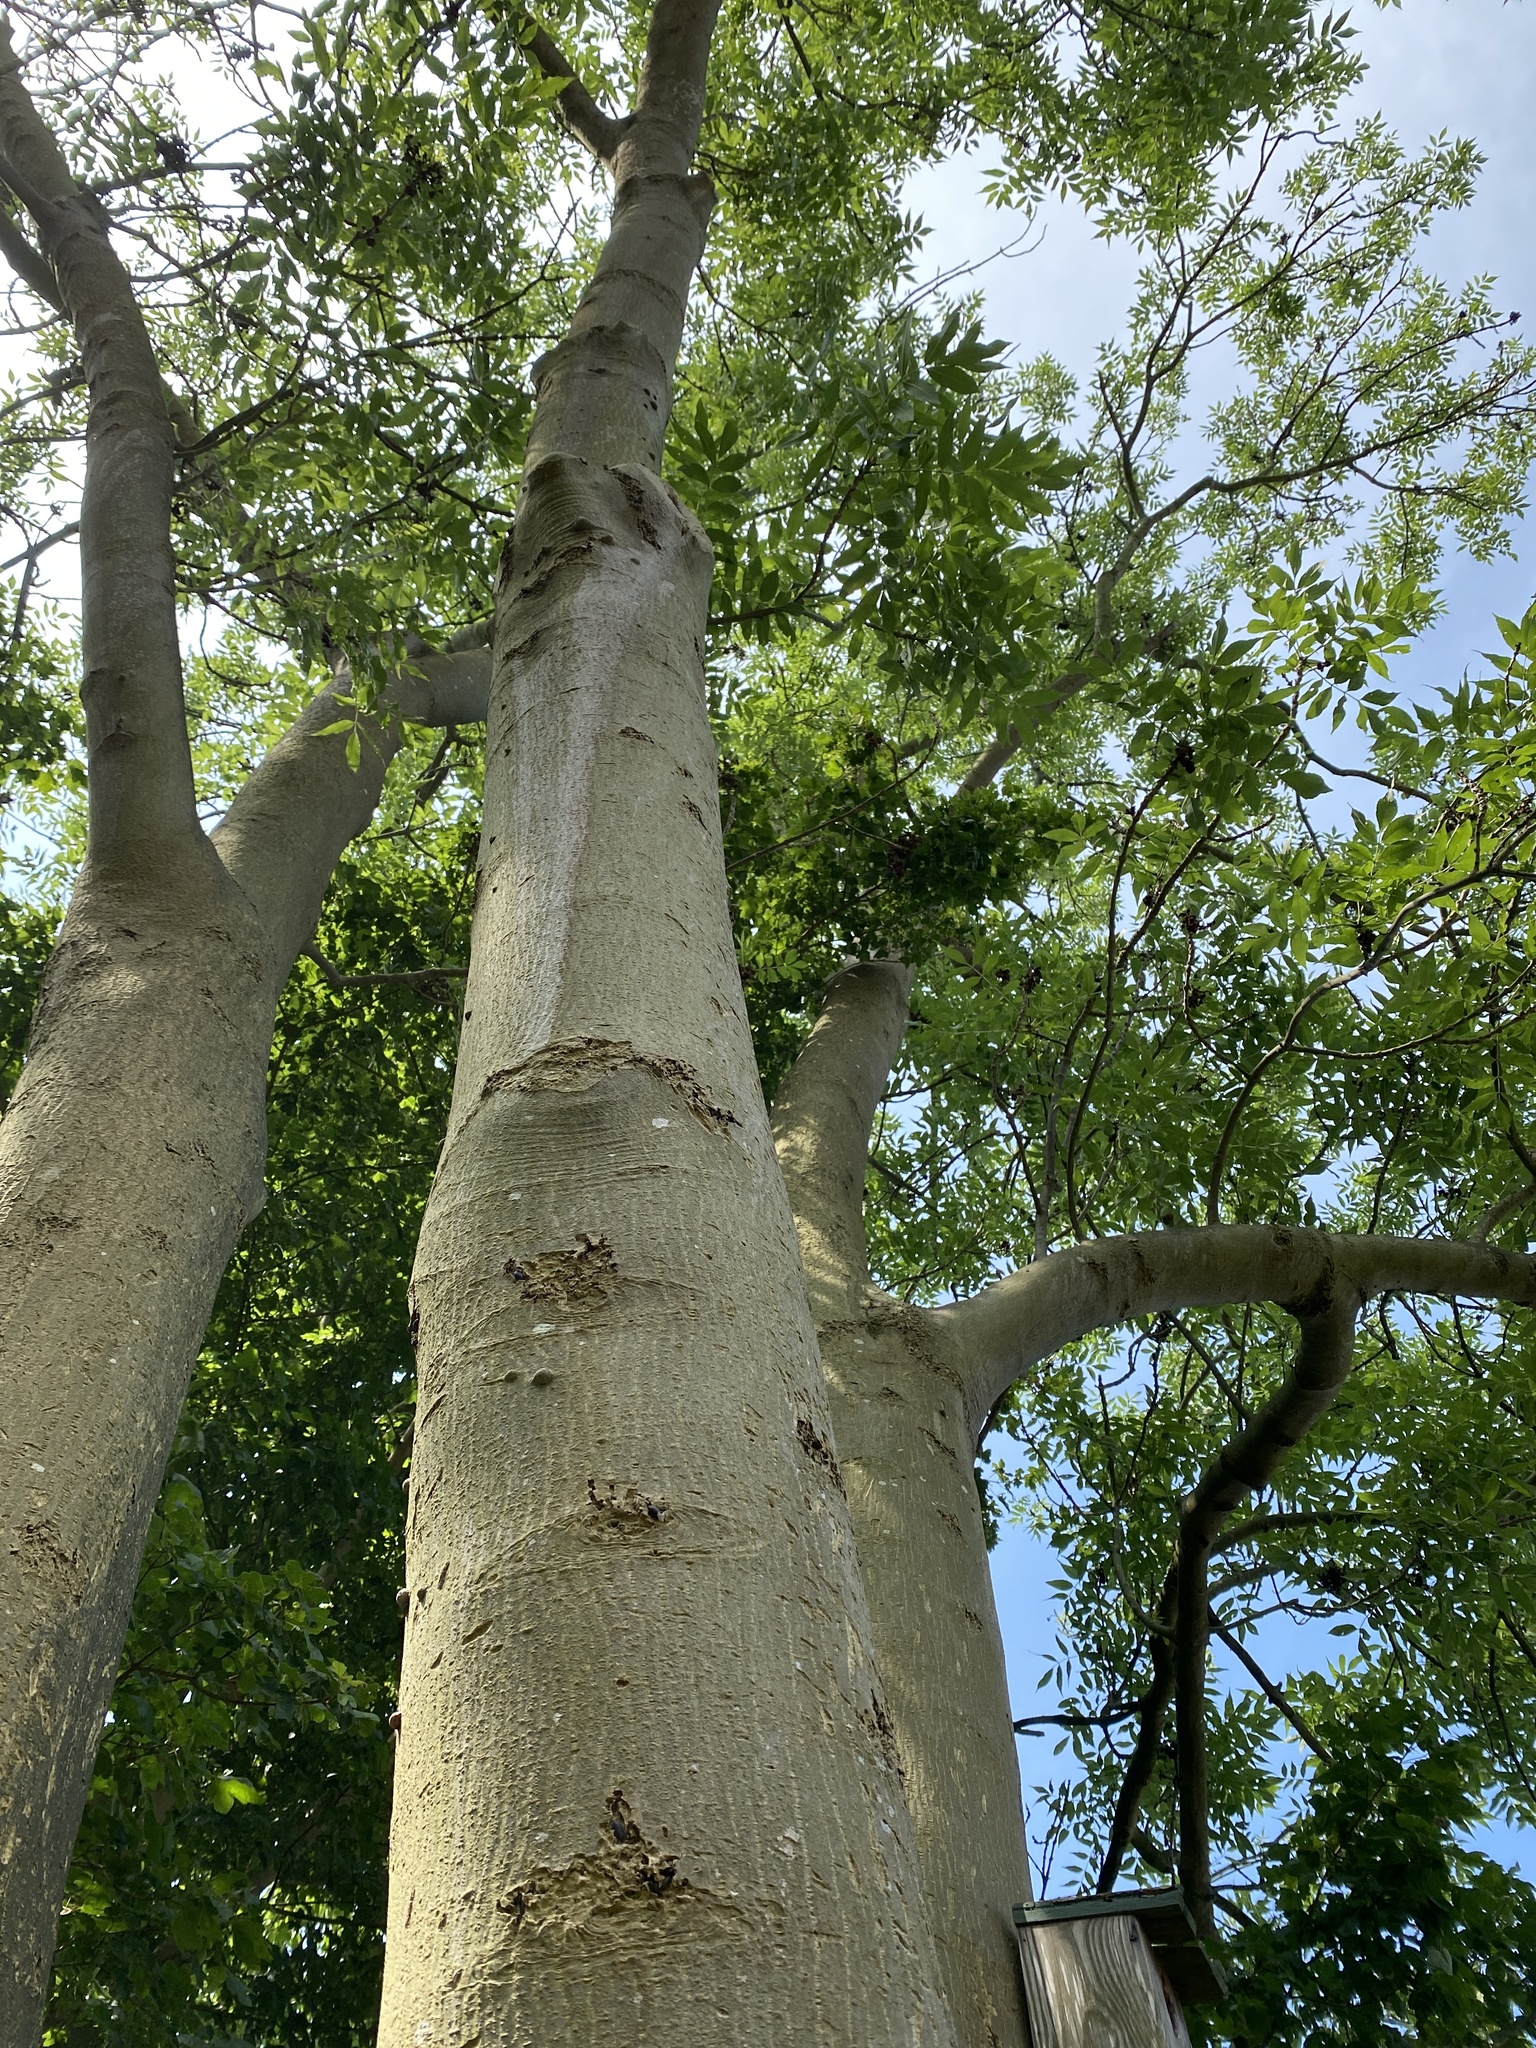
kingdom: Animalia
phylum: Arthropoda
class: Malacostraca
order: Isopoda
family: Porcellionidae
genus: Porcellio
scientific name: Porcellio scaber
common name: Common rough woodlouse
